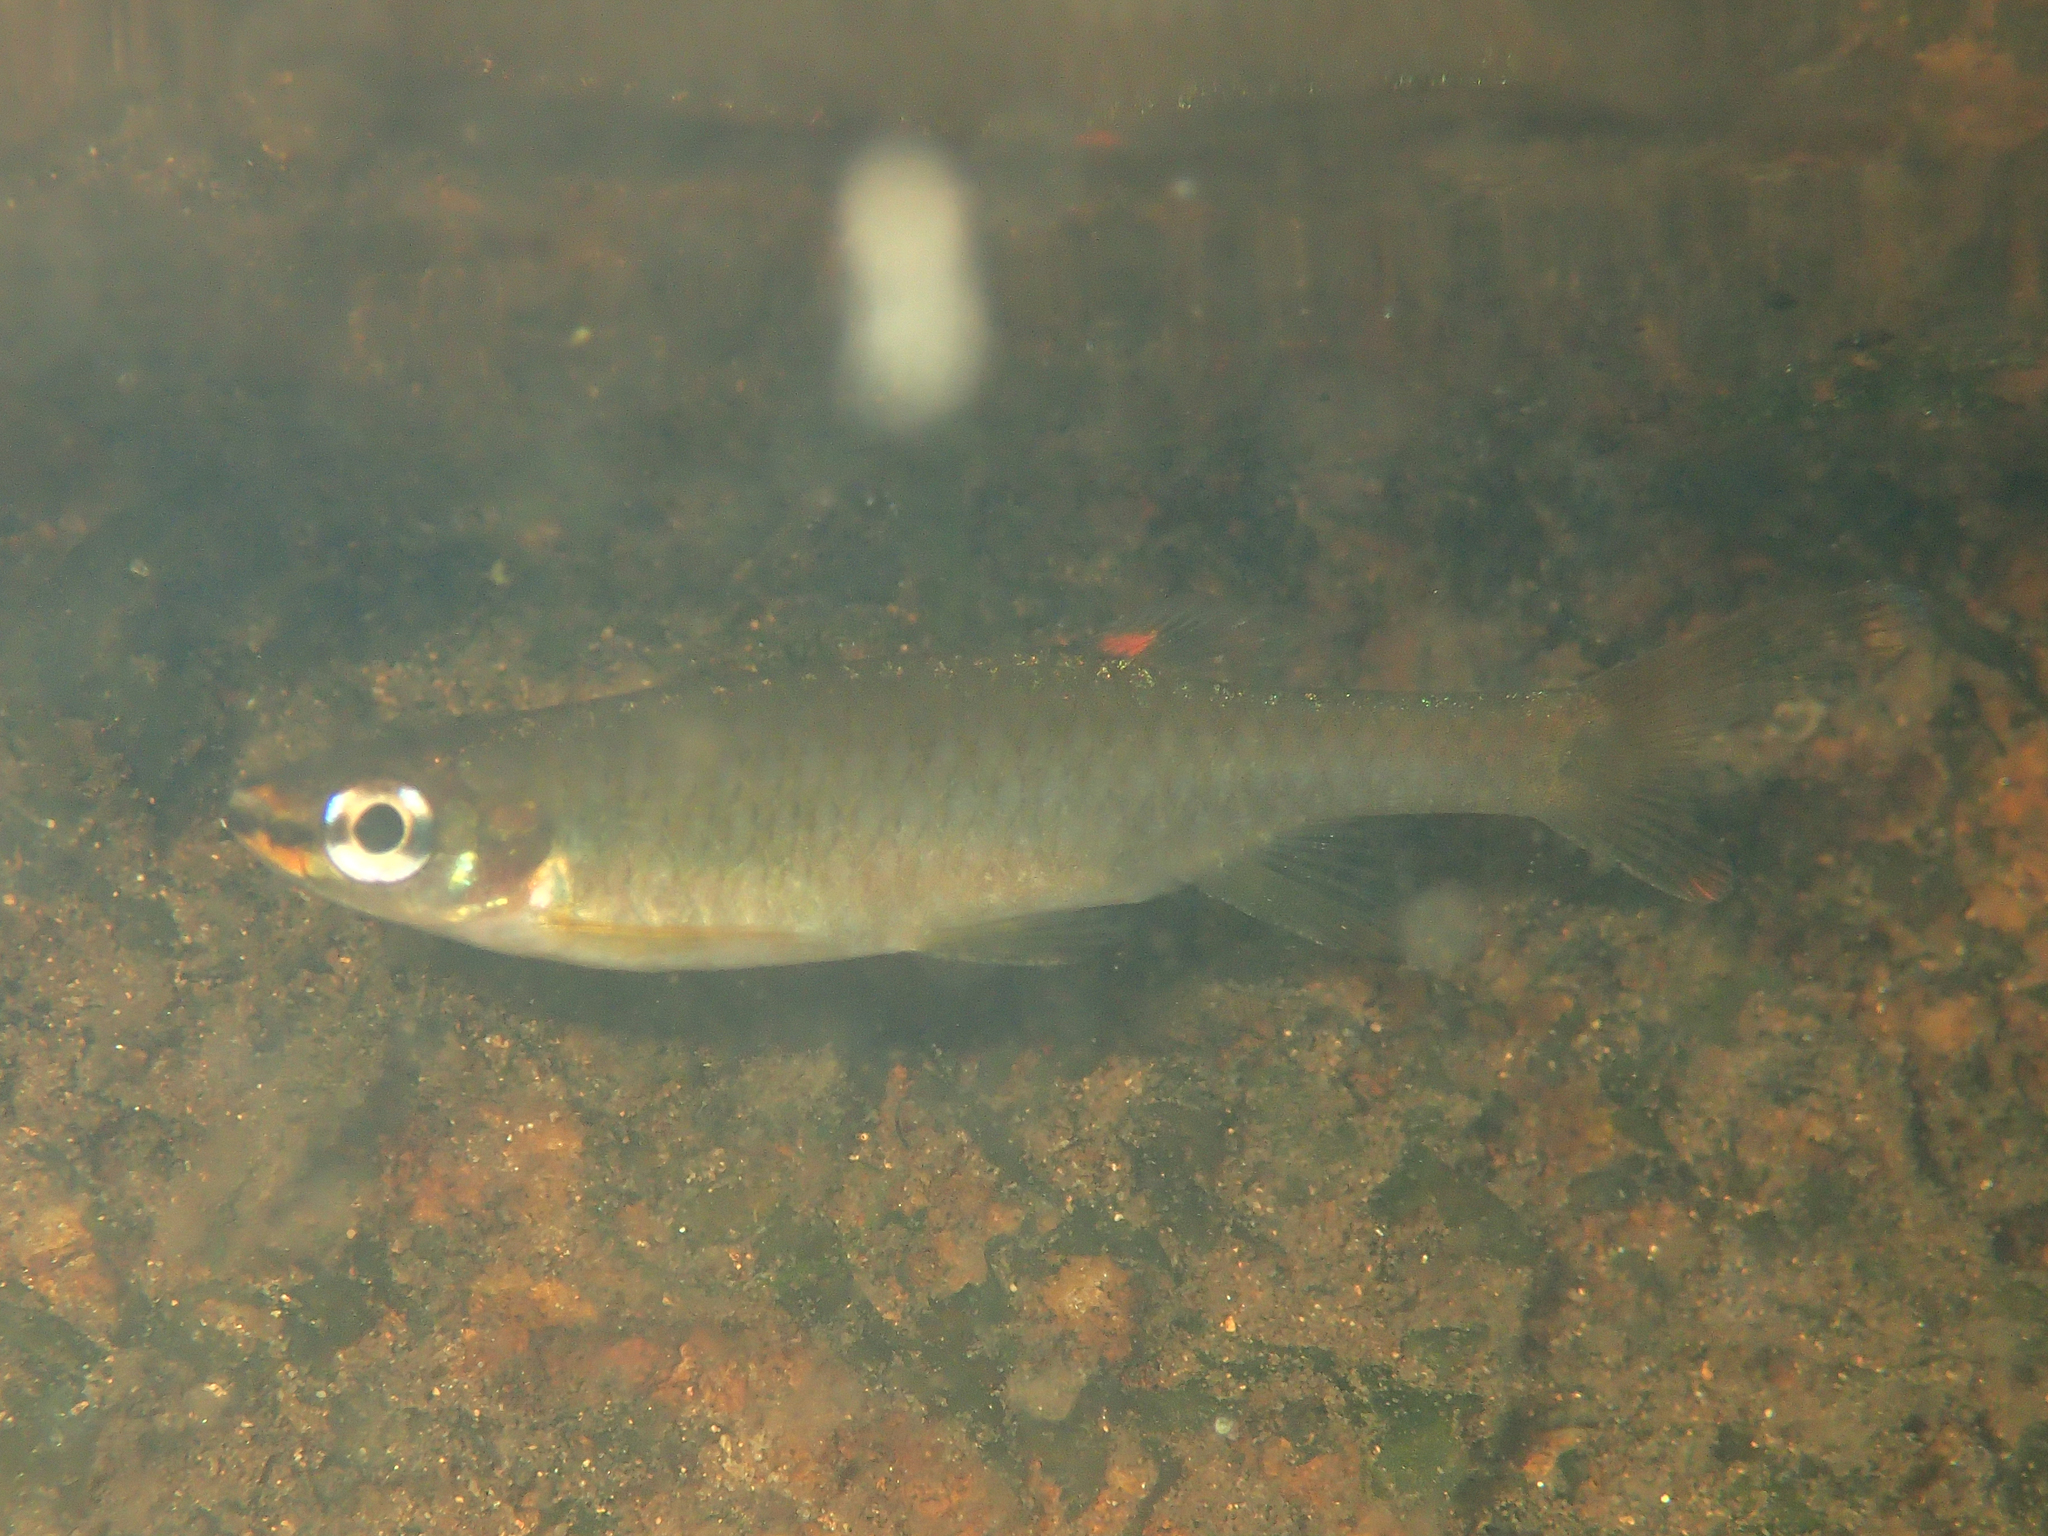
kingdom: Animalia
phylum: Chordata
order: Characiformes
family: Lebiasinidae
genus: Pyrrhulina
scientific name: Pyrrhulina filamentosa
